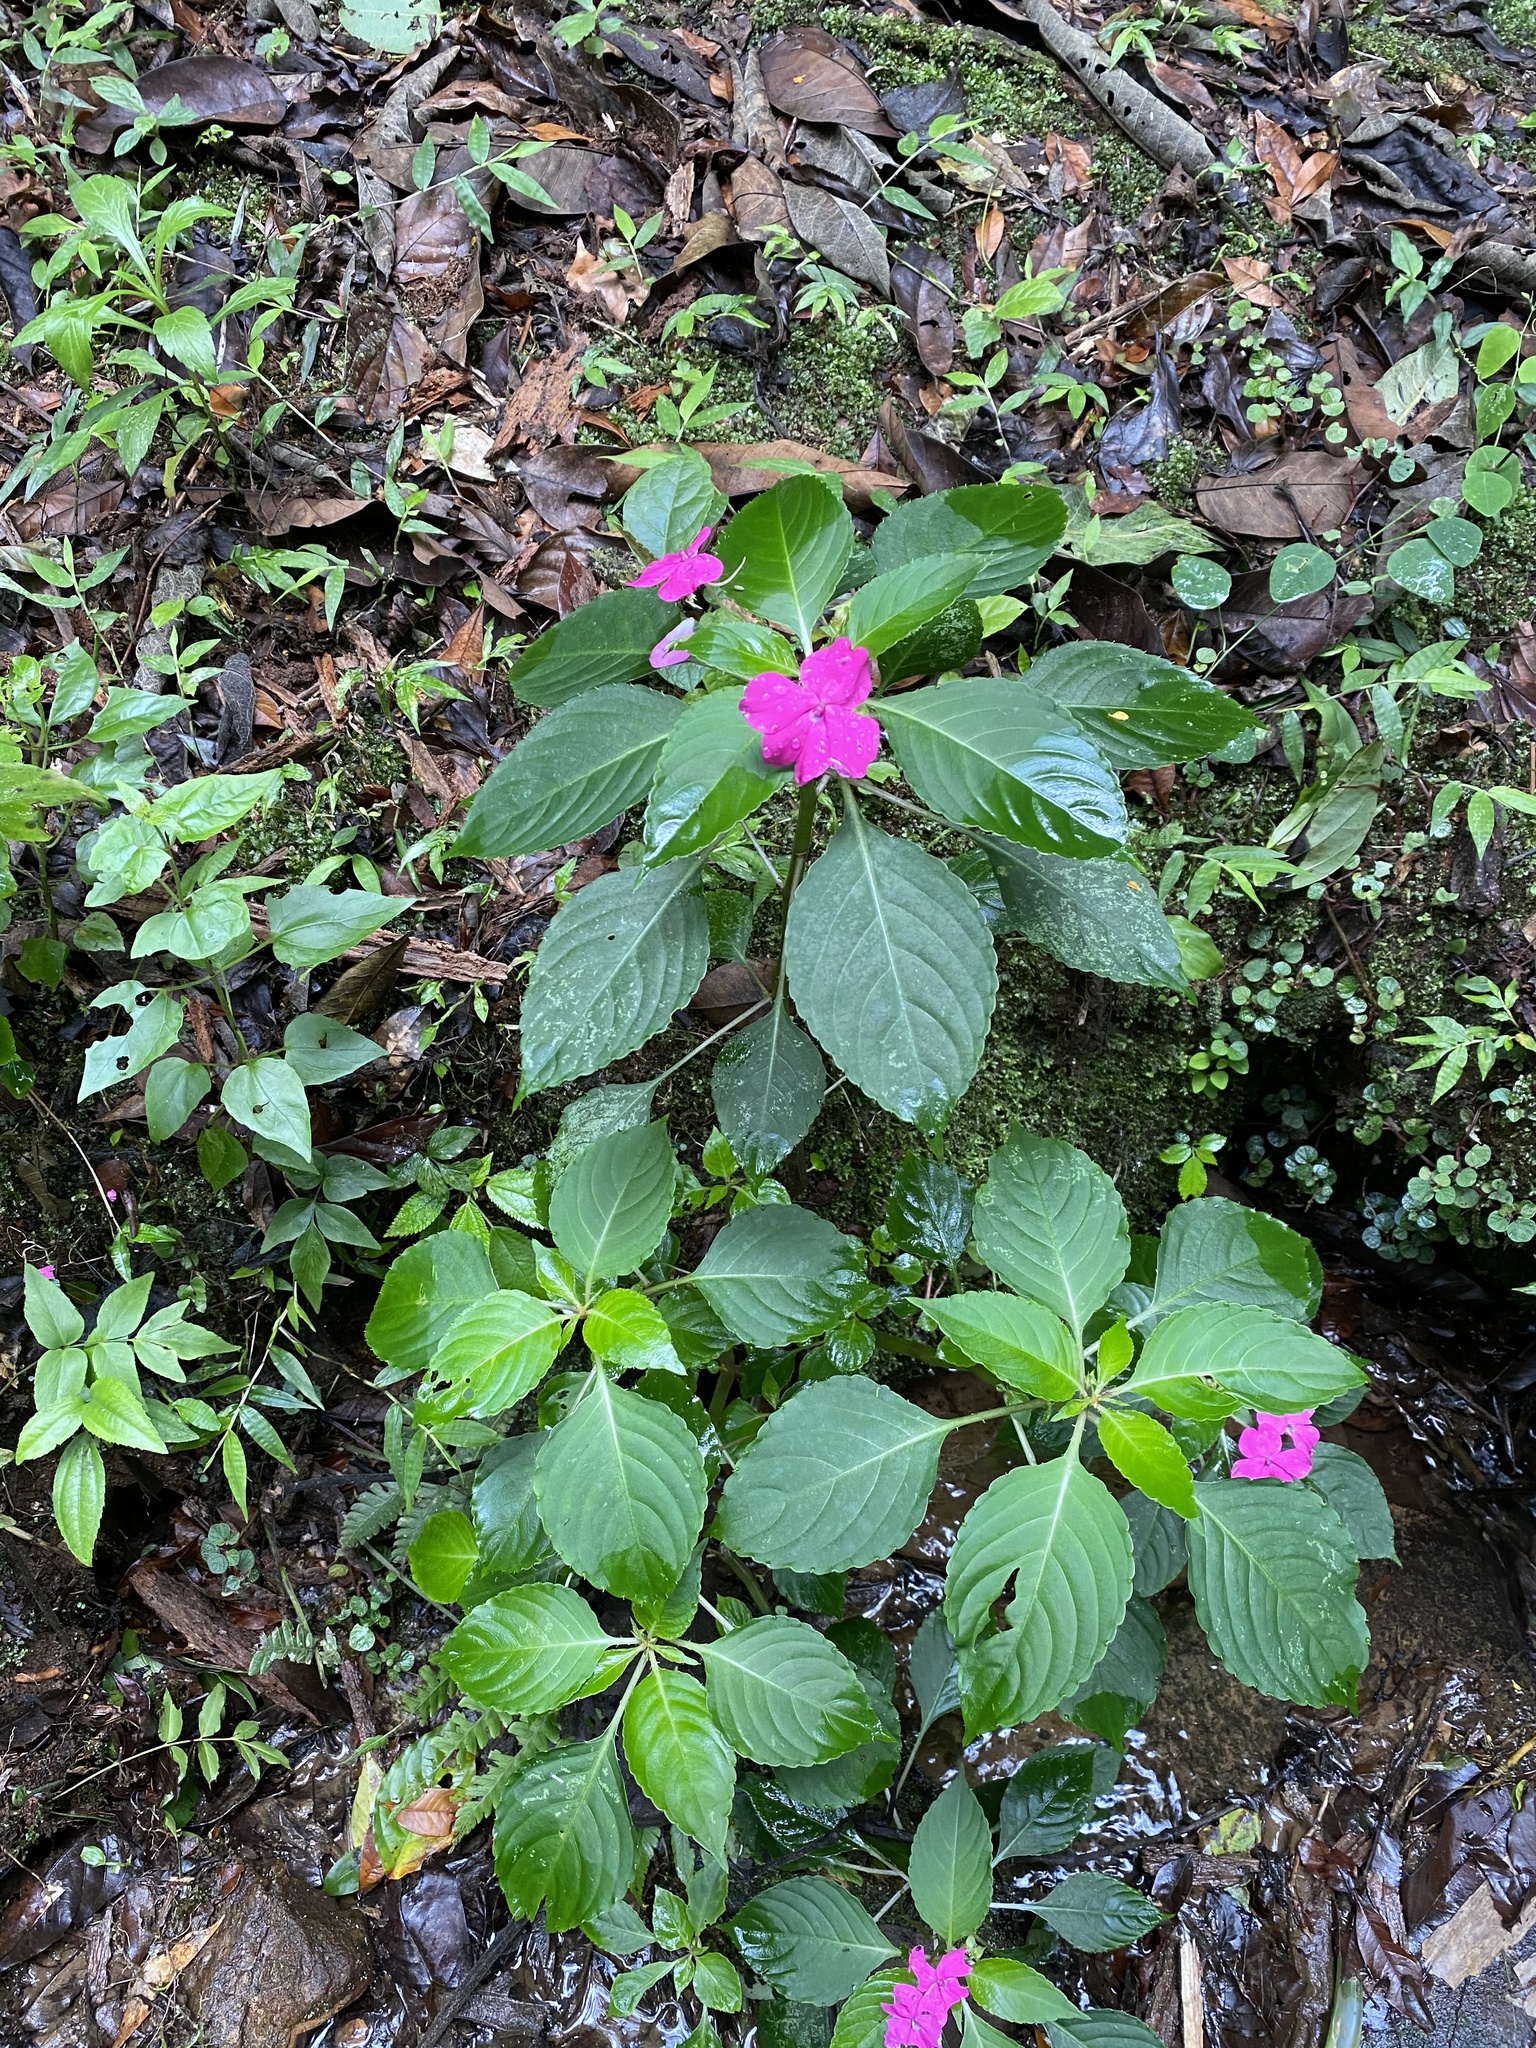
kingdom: Plantae
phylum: Tracheophyta
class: Magnoliopsida
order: Ericales
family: Balsaminaceae
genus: Impatiens
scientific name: Impatiens walleriana
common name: Buzzy lizzy
